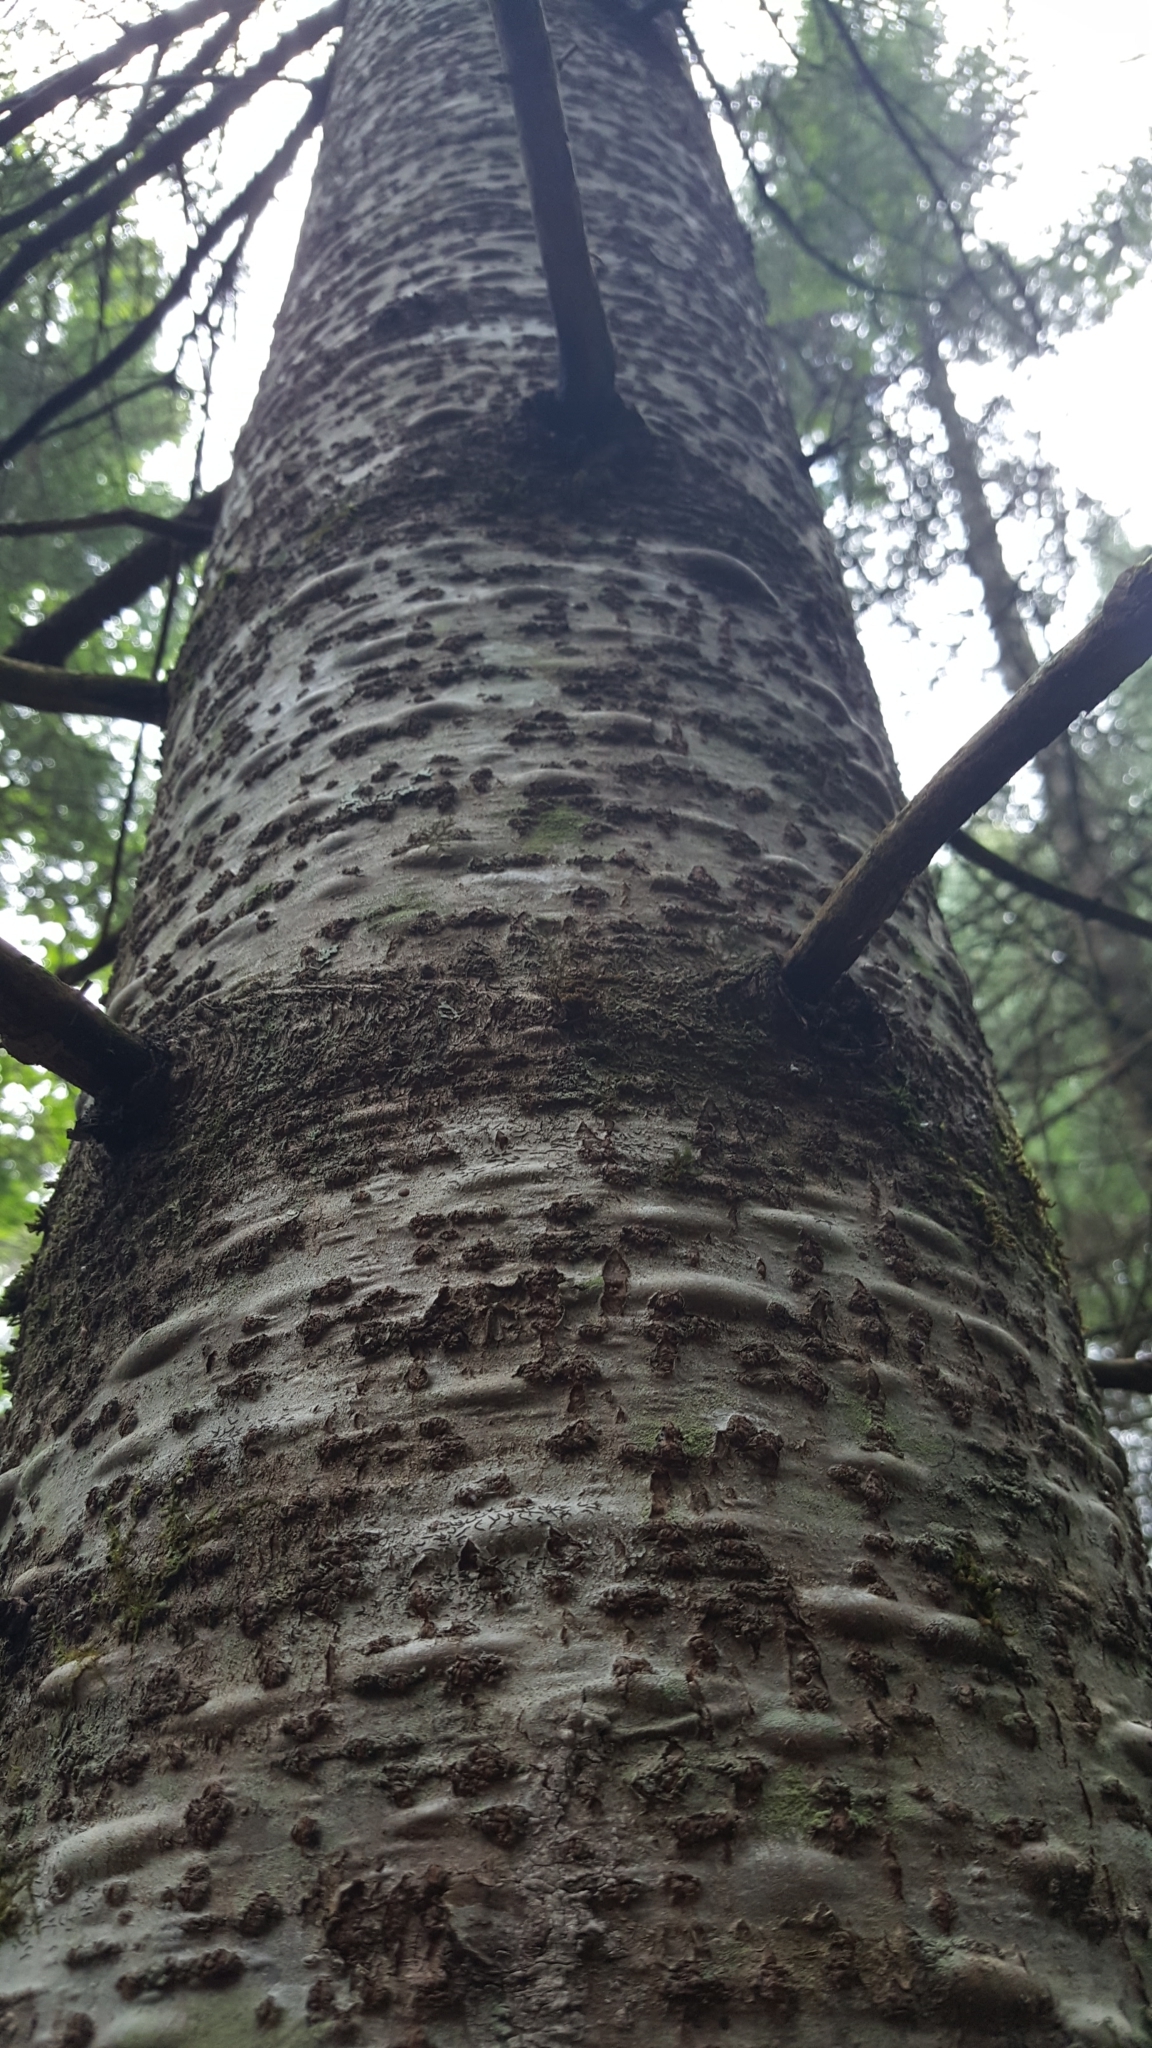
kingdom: Plantae
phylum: Tracheophyta
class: Pinopsida
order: Pinales
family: Pinaceae
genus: Abies
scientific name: Abies balsamea
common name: Balsam fir
